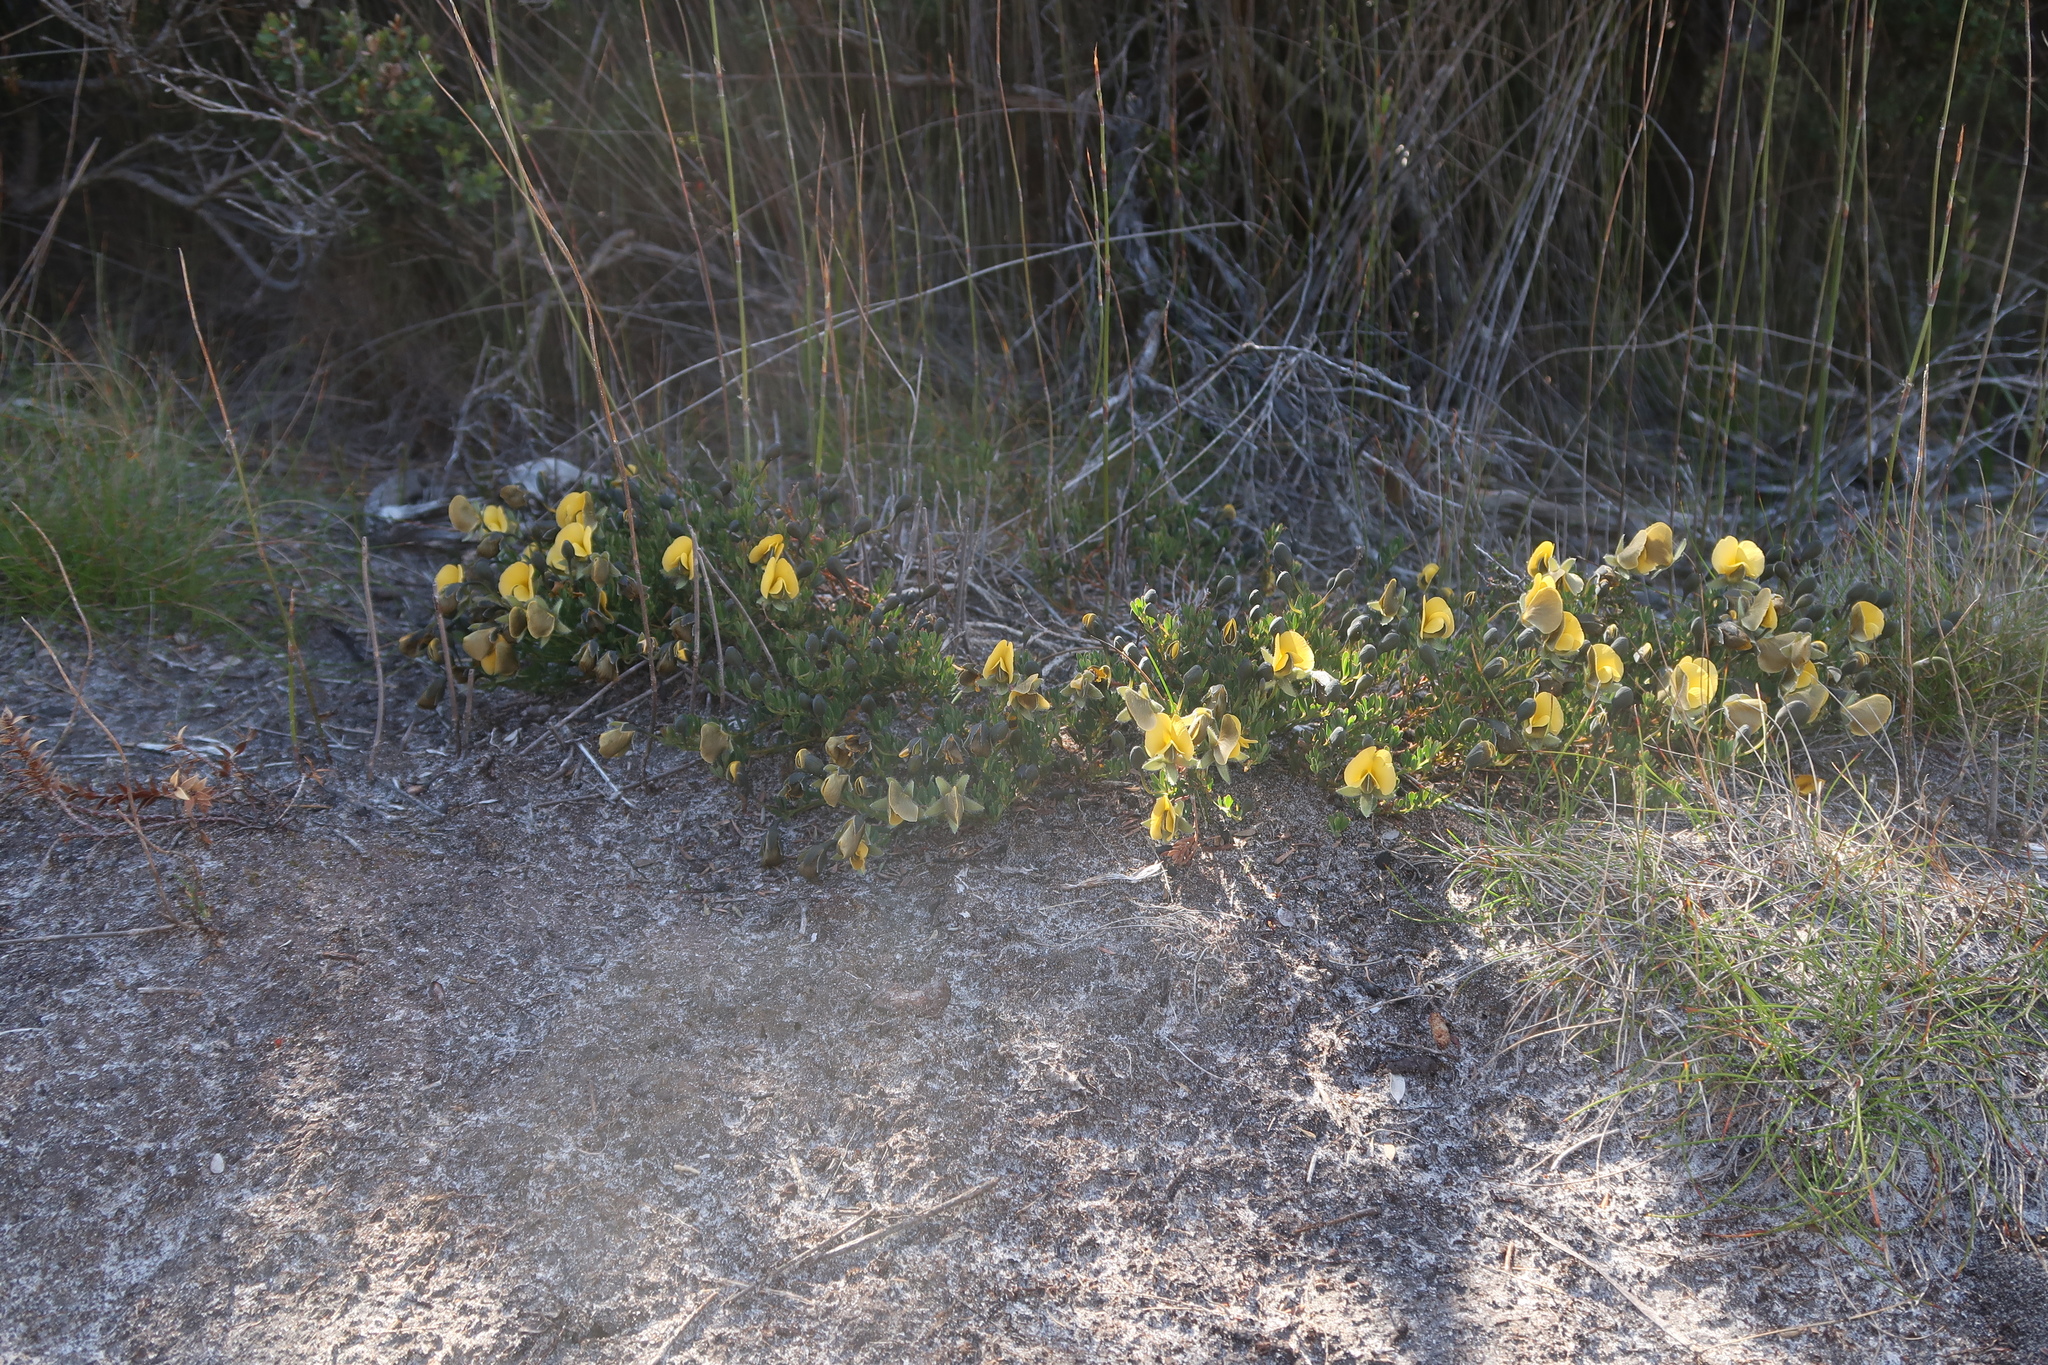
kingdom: Plantae
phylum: Tracheophyta
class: Magnoliopsida
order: Fabales
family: Fabaceae
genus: Gompholobium
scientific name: Gompholobium huegelii
